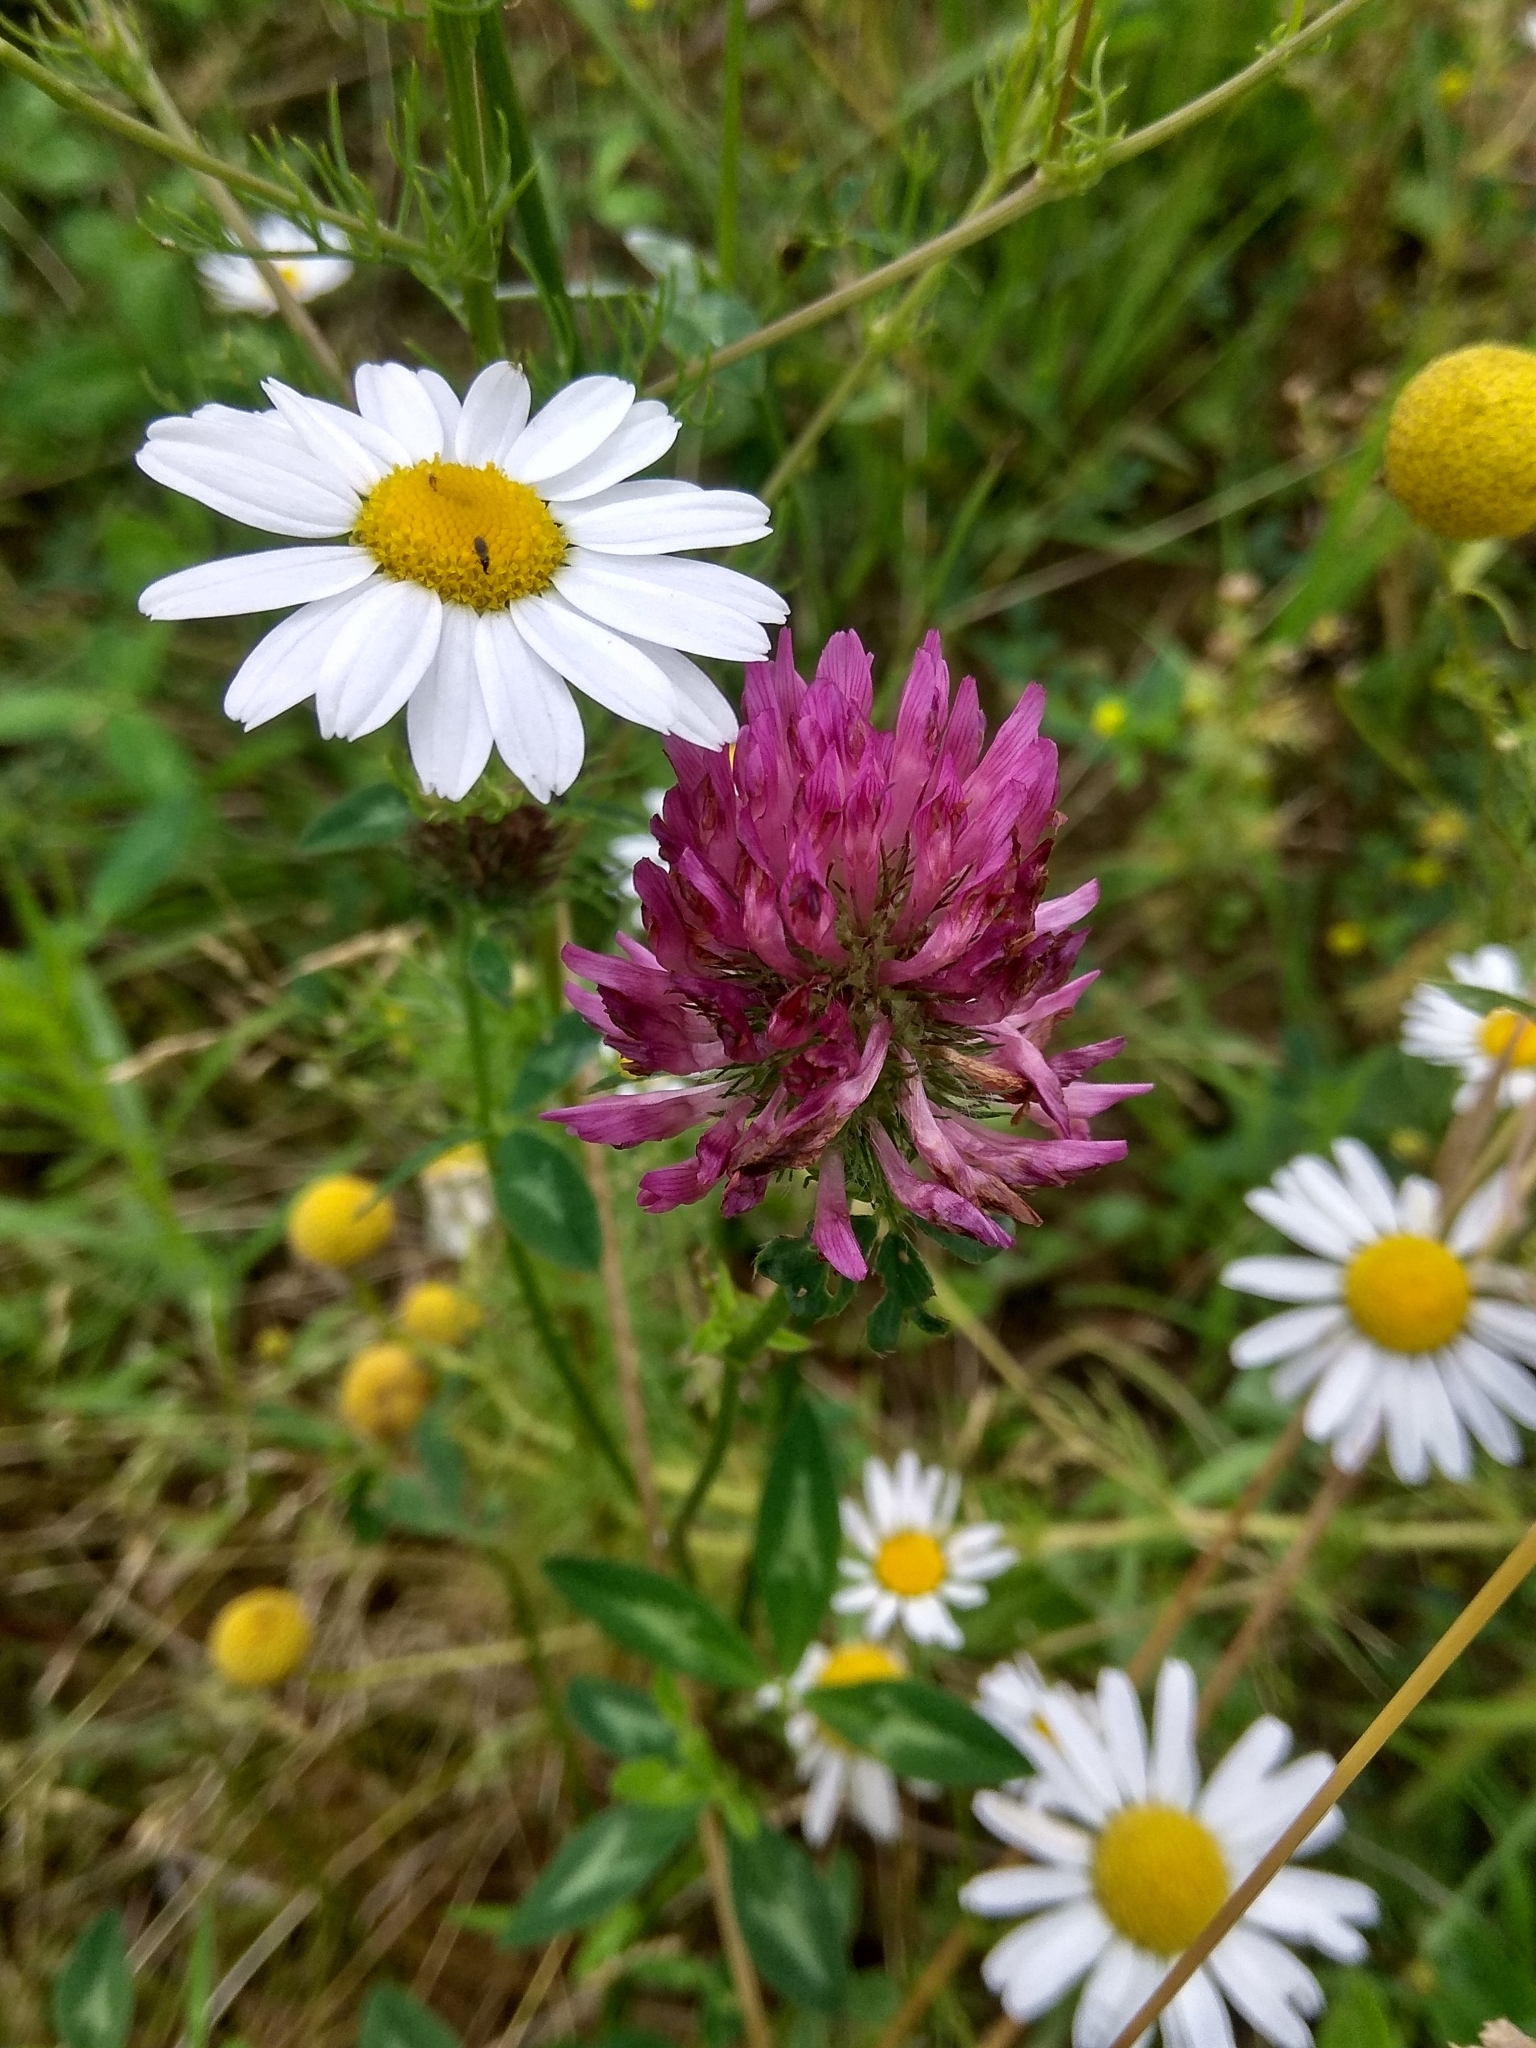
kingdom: Plantae
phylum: Tracheophyta
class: Magnoliopsida
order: Fabales
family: Fabaceae
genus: Trifolium
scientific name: Trifolium pratense
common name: Red clover
